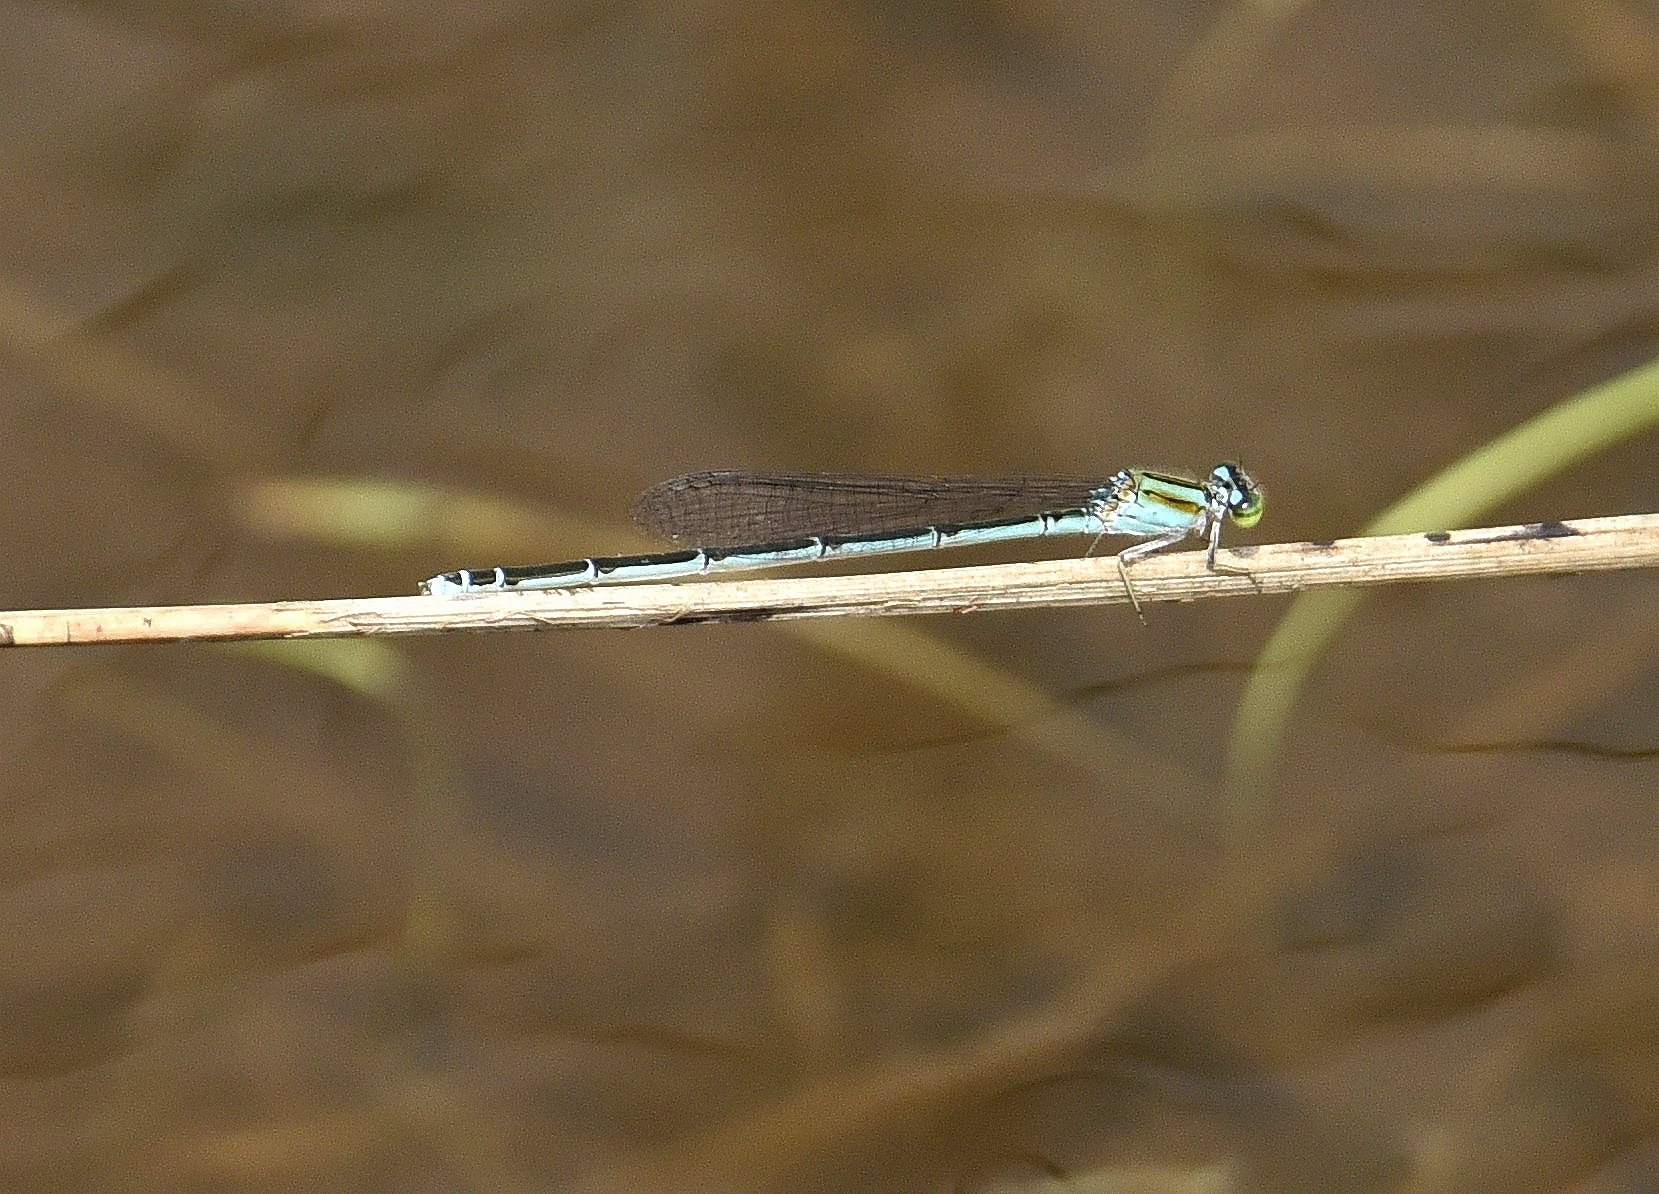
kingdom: Animalia
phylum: Arthropoda
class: Insecta
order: Odonata
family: Coenagrionidae
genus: Pseudagrion
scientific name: Pseudagrion malabaricum
